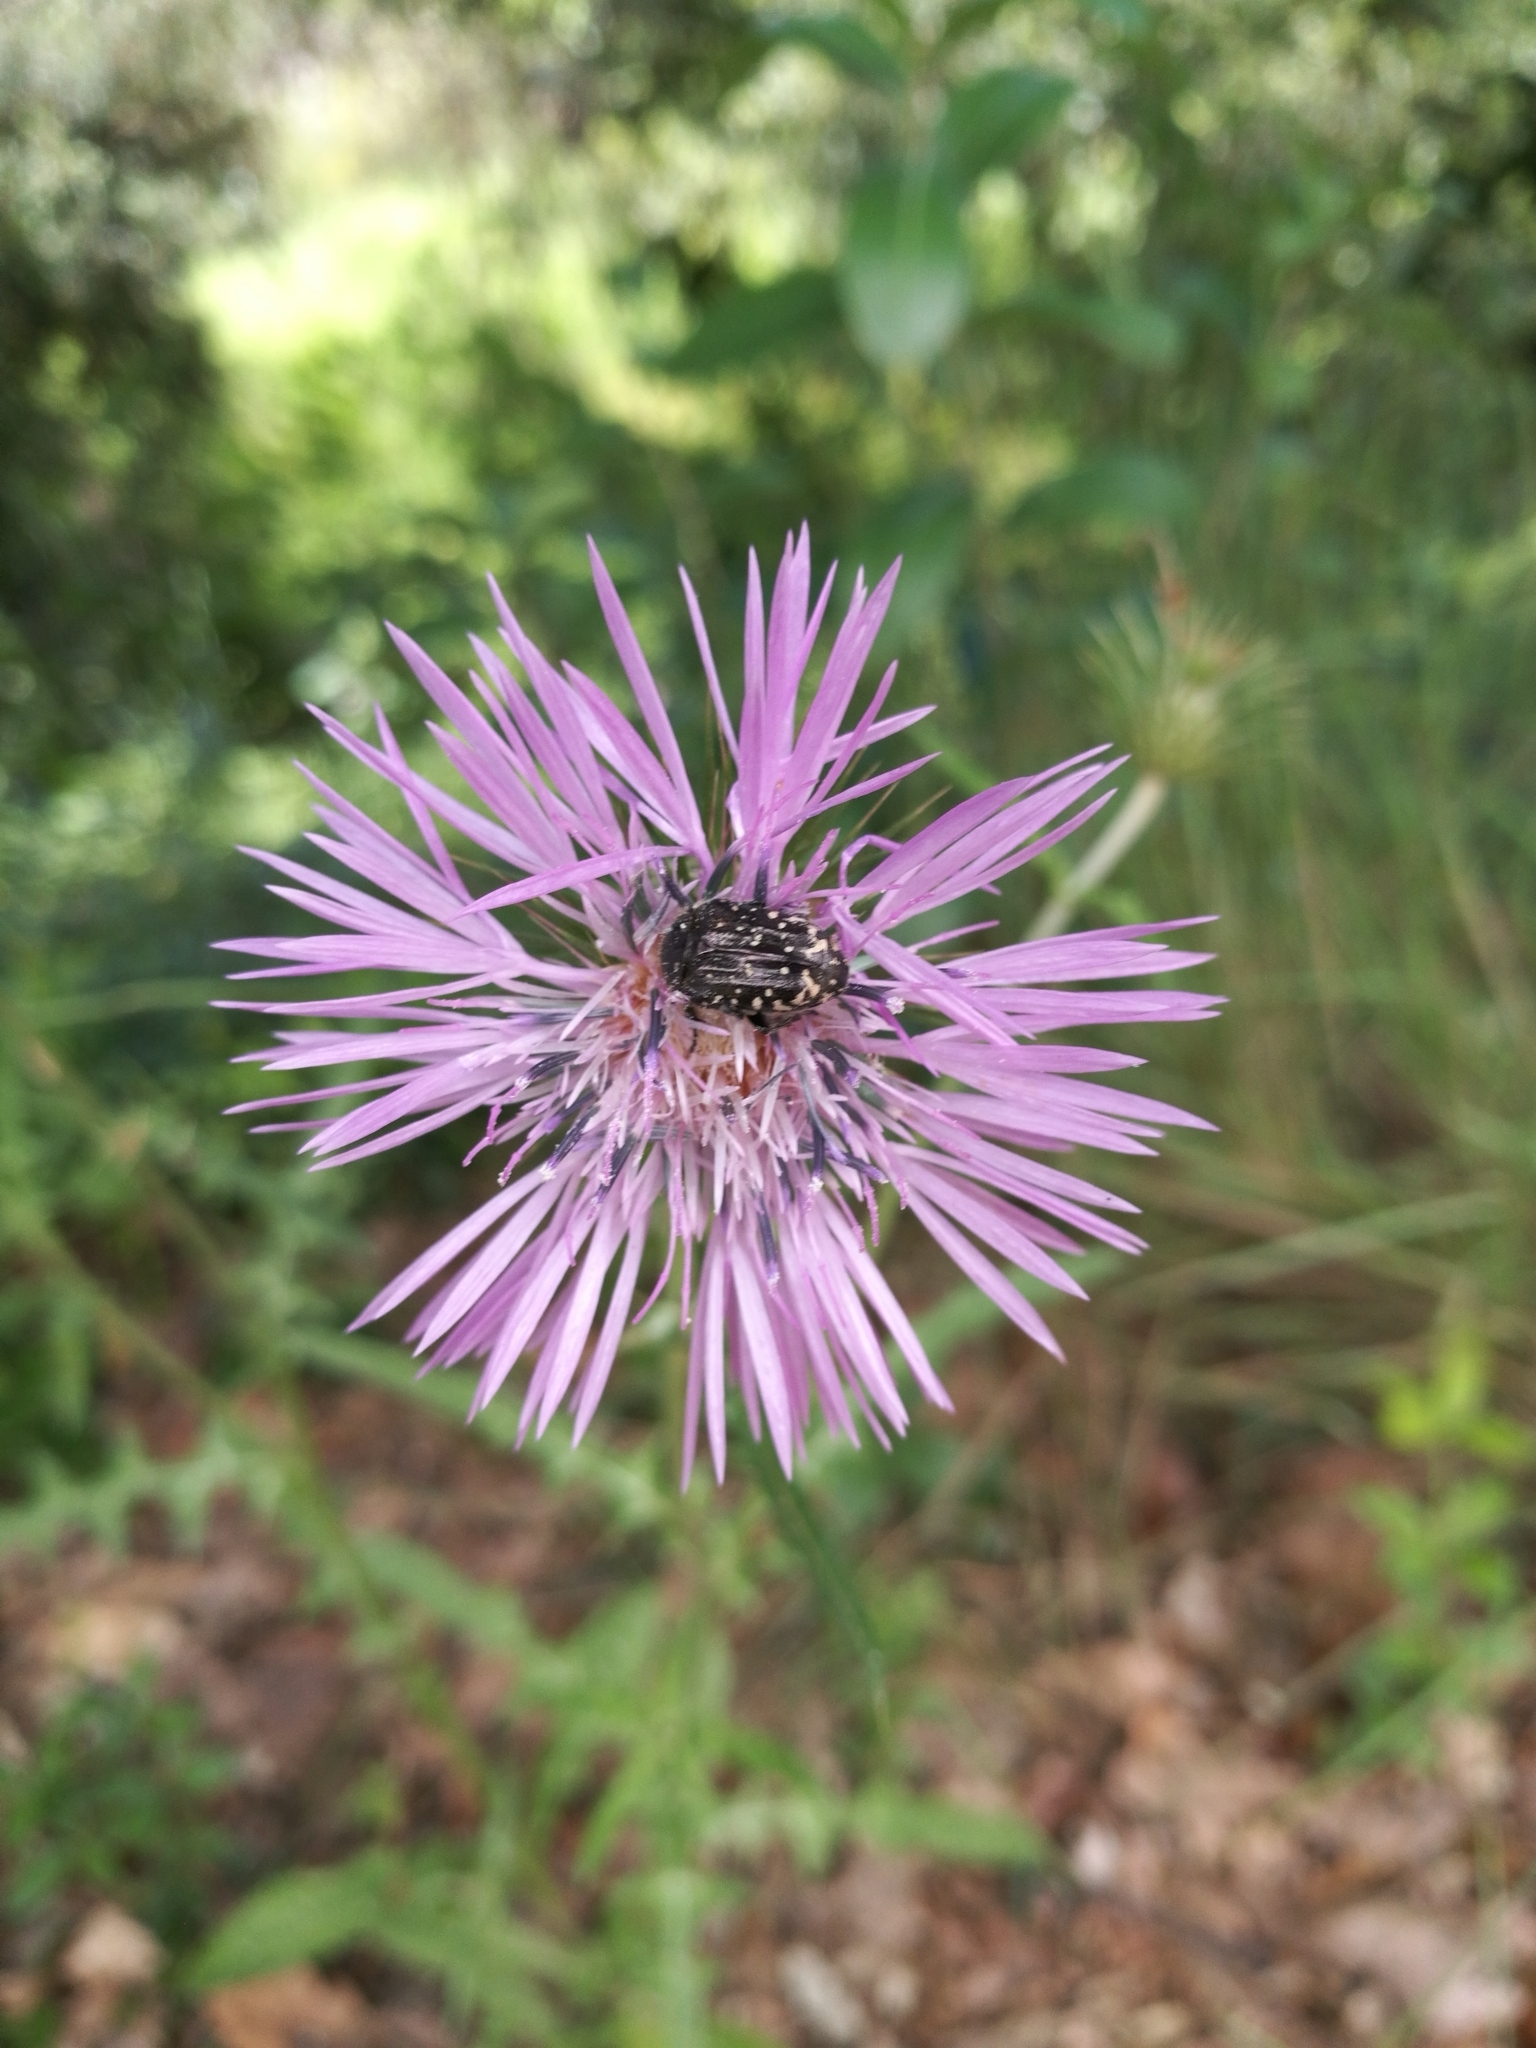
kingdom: Animalia
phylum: Arthropoda
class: Insecta
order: Coleoptera
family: Scarabaeidae
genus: Oxythyrea
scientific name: Oxythyrea funesta
